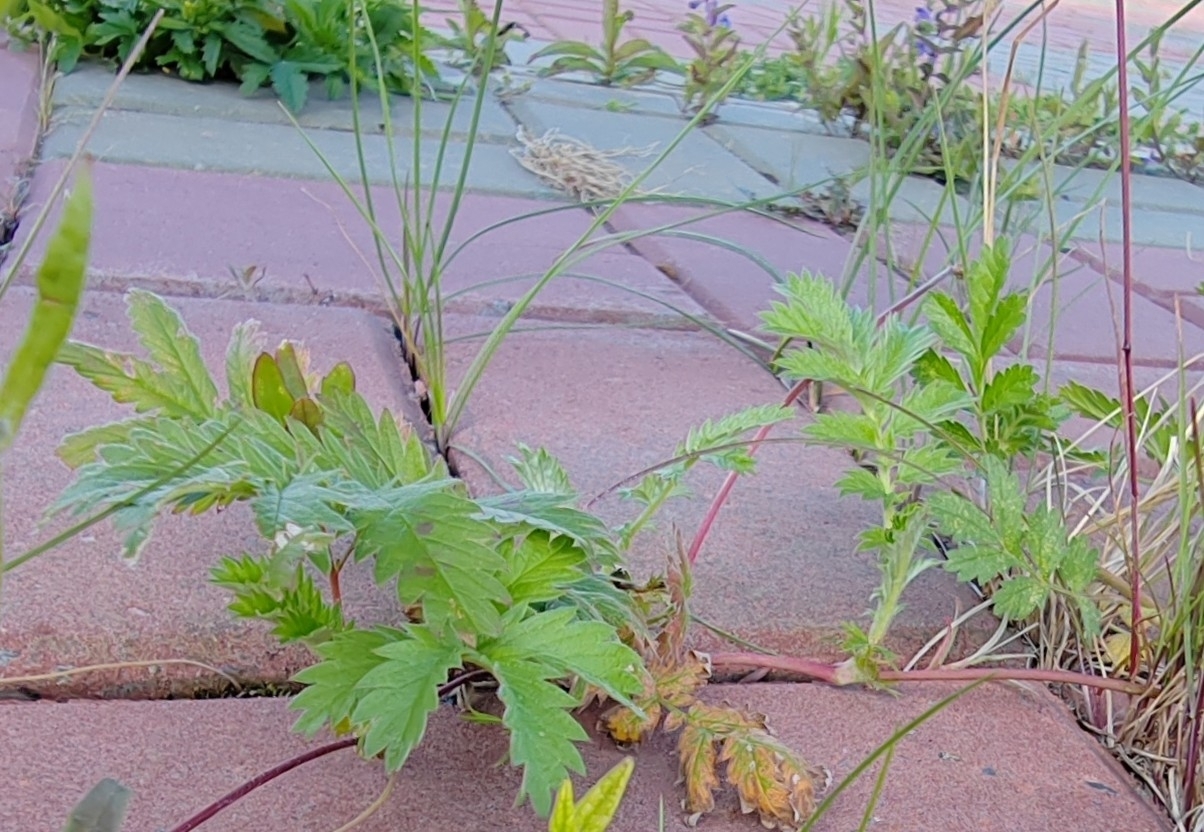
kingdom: Plantae
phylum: Tracheophyta
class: Magnoliopsida
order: Rosales
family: Rosaceae
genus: Argentina
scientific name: Argentina anserina
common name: Common silverweed
